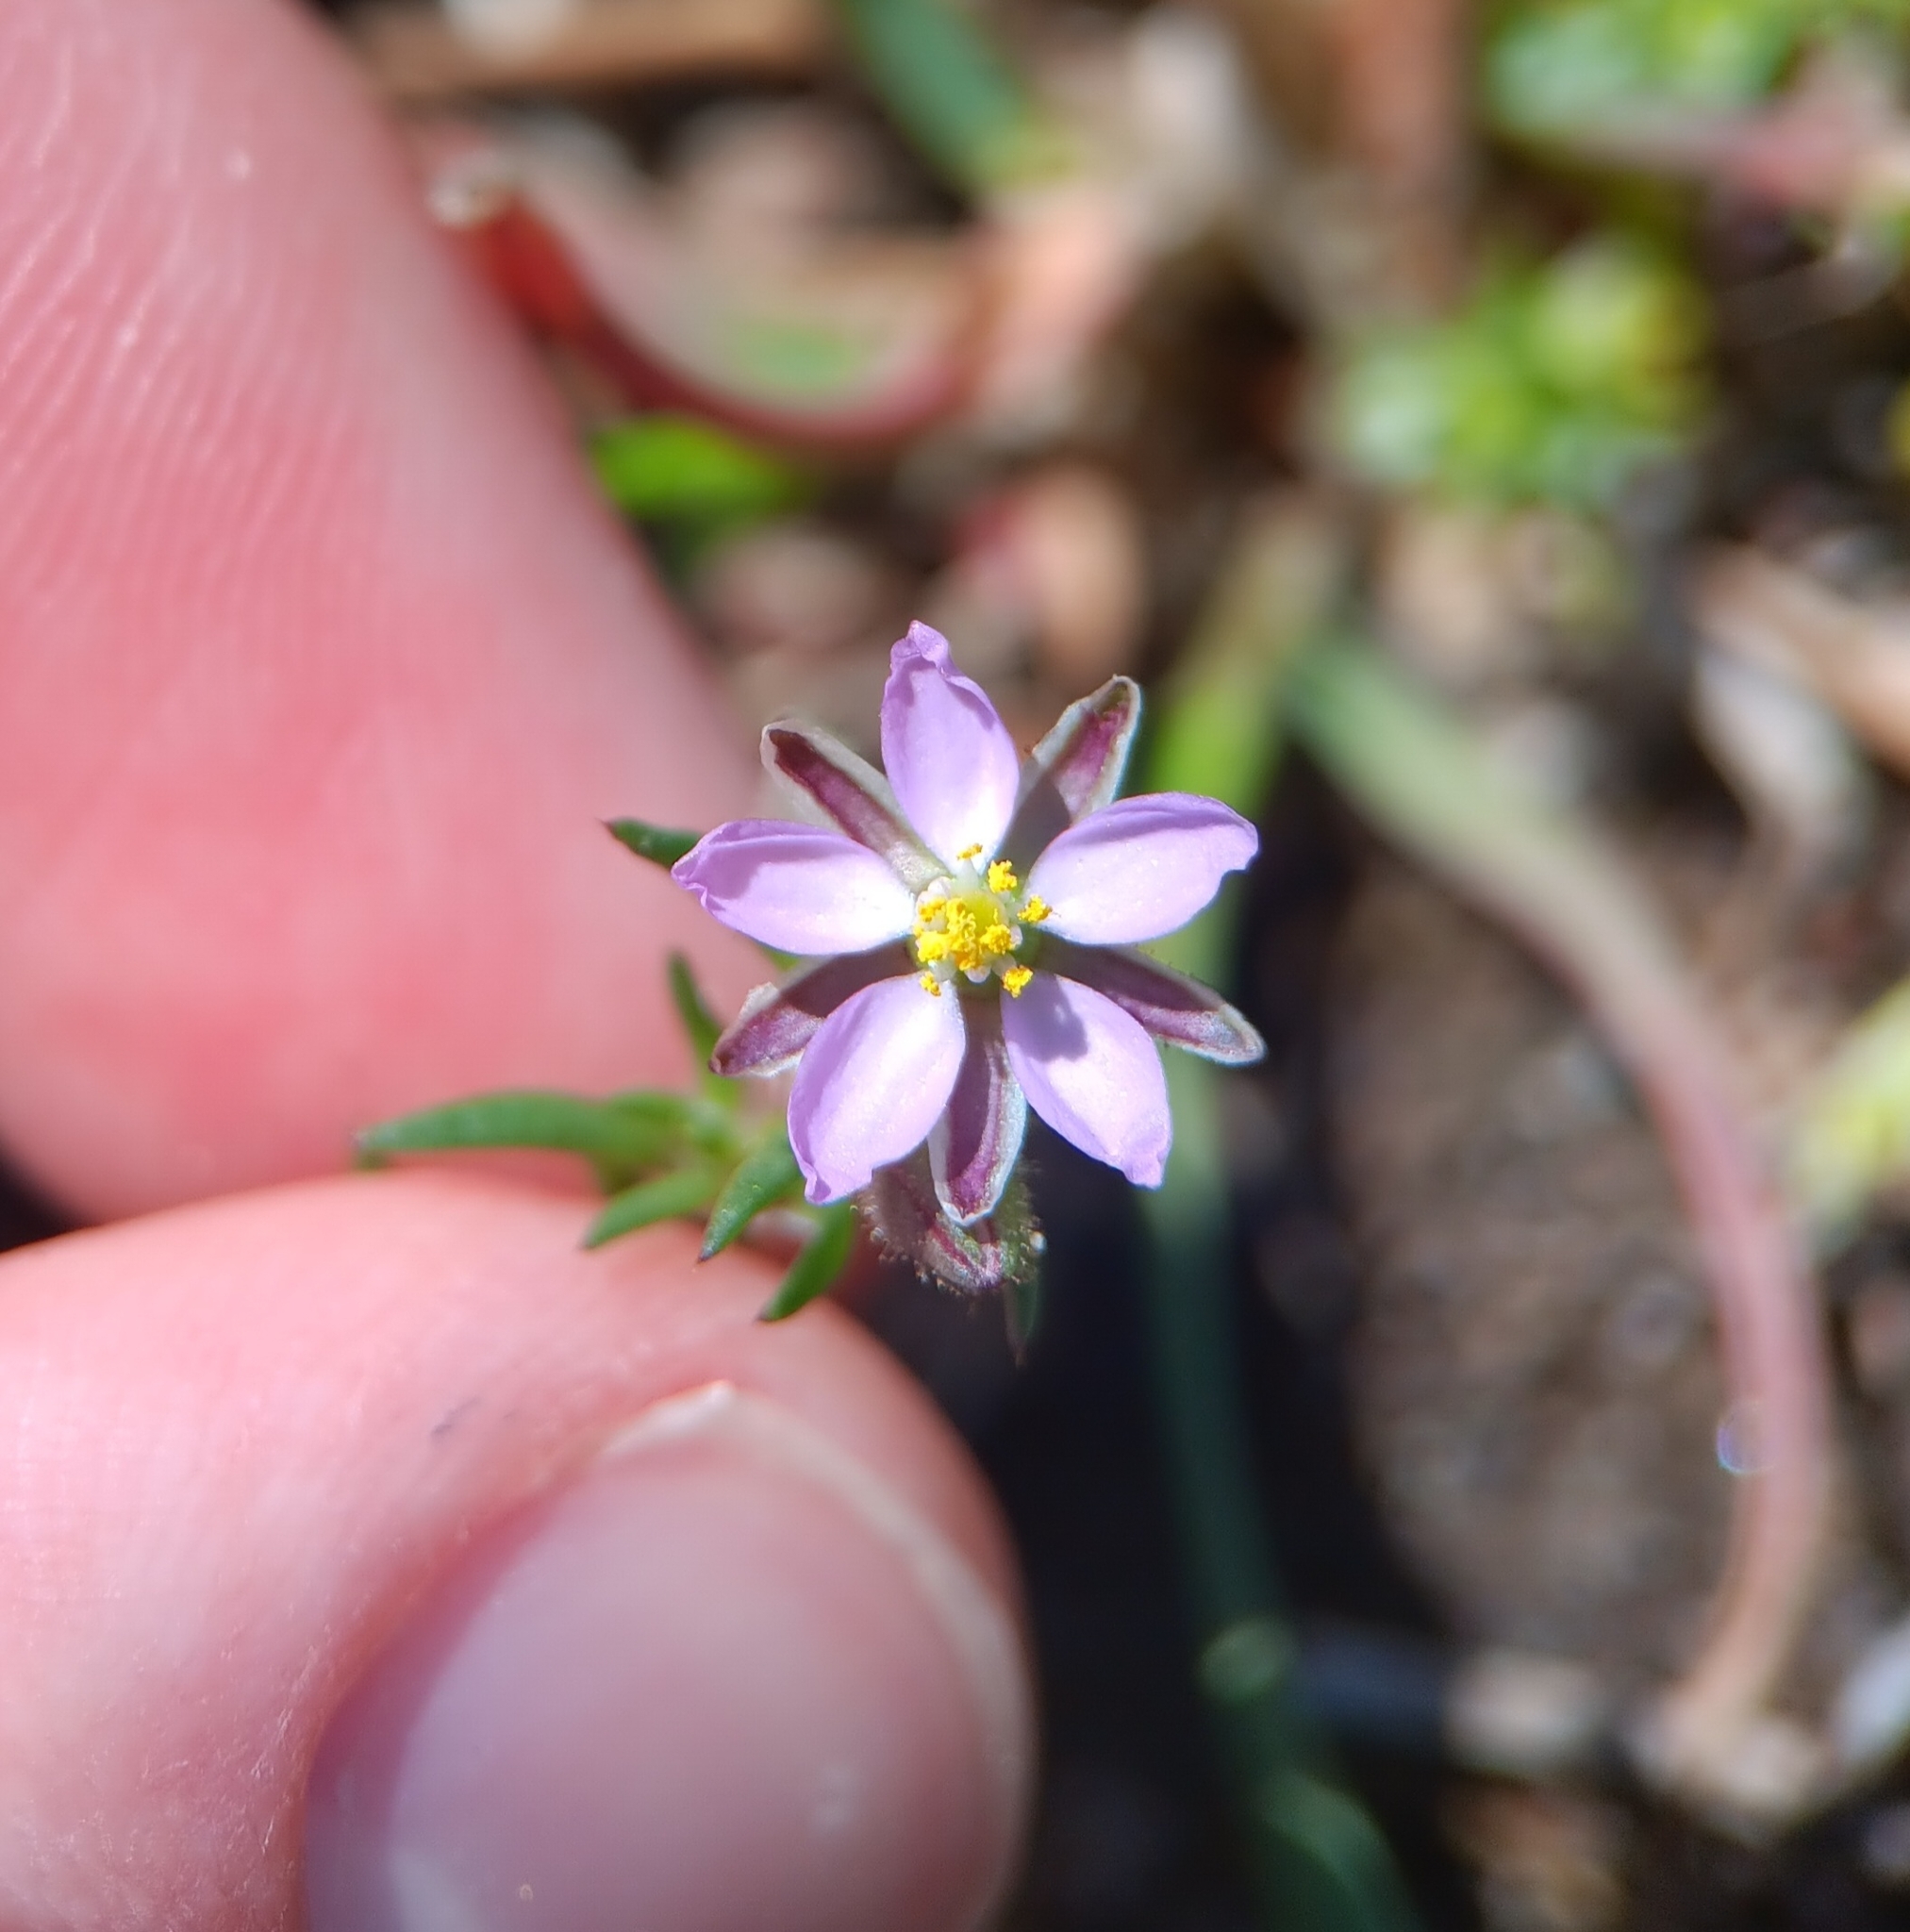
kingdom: Plantae
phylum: Tracheophyta
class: Magnoliopsida
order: Caryophyllales
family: Caryophyllaceae
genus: Spergularia
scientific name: Spergularia rubra
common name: Red sand-spurrey
